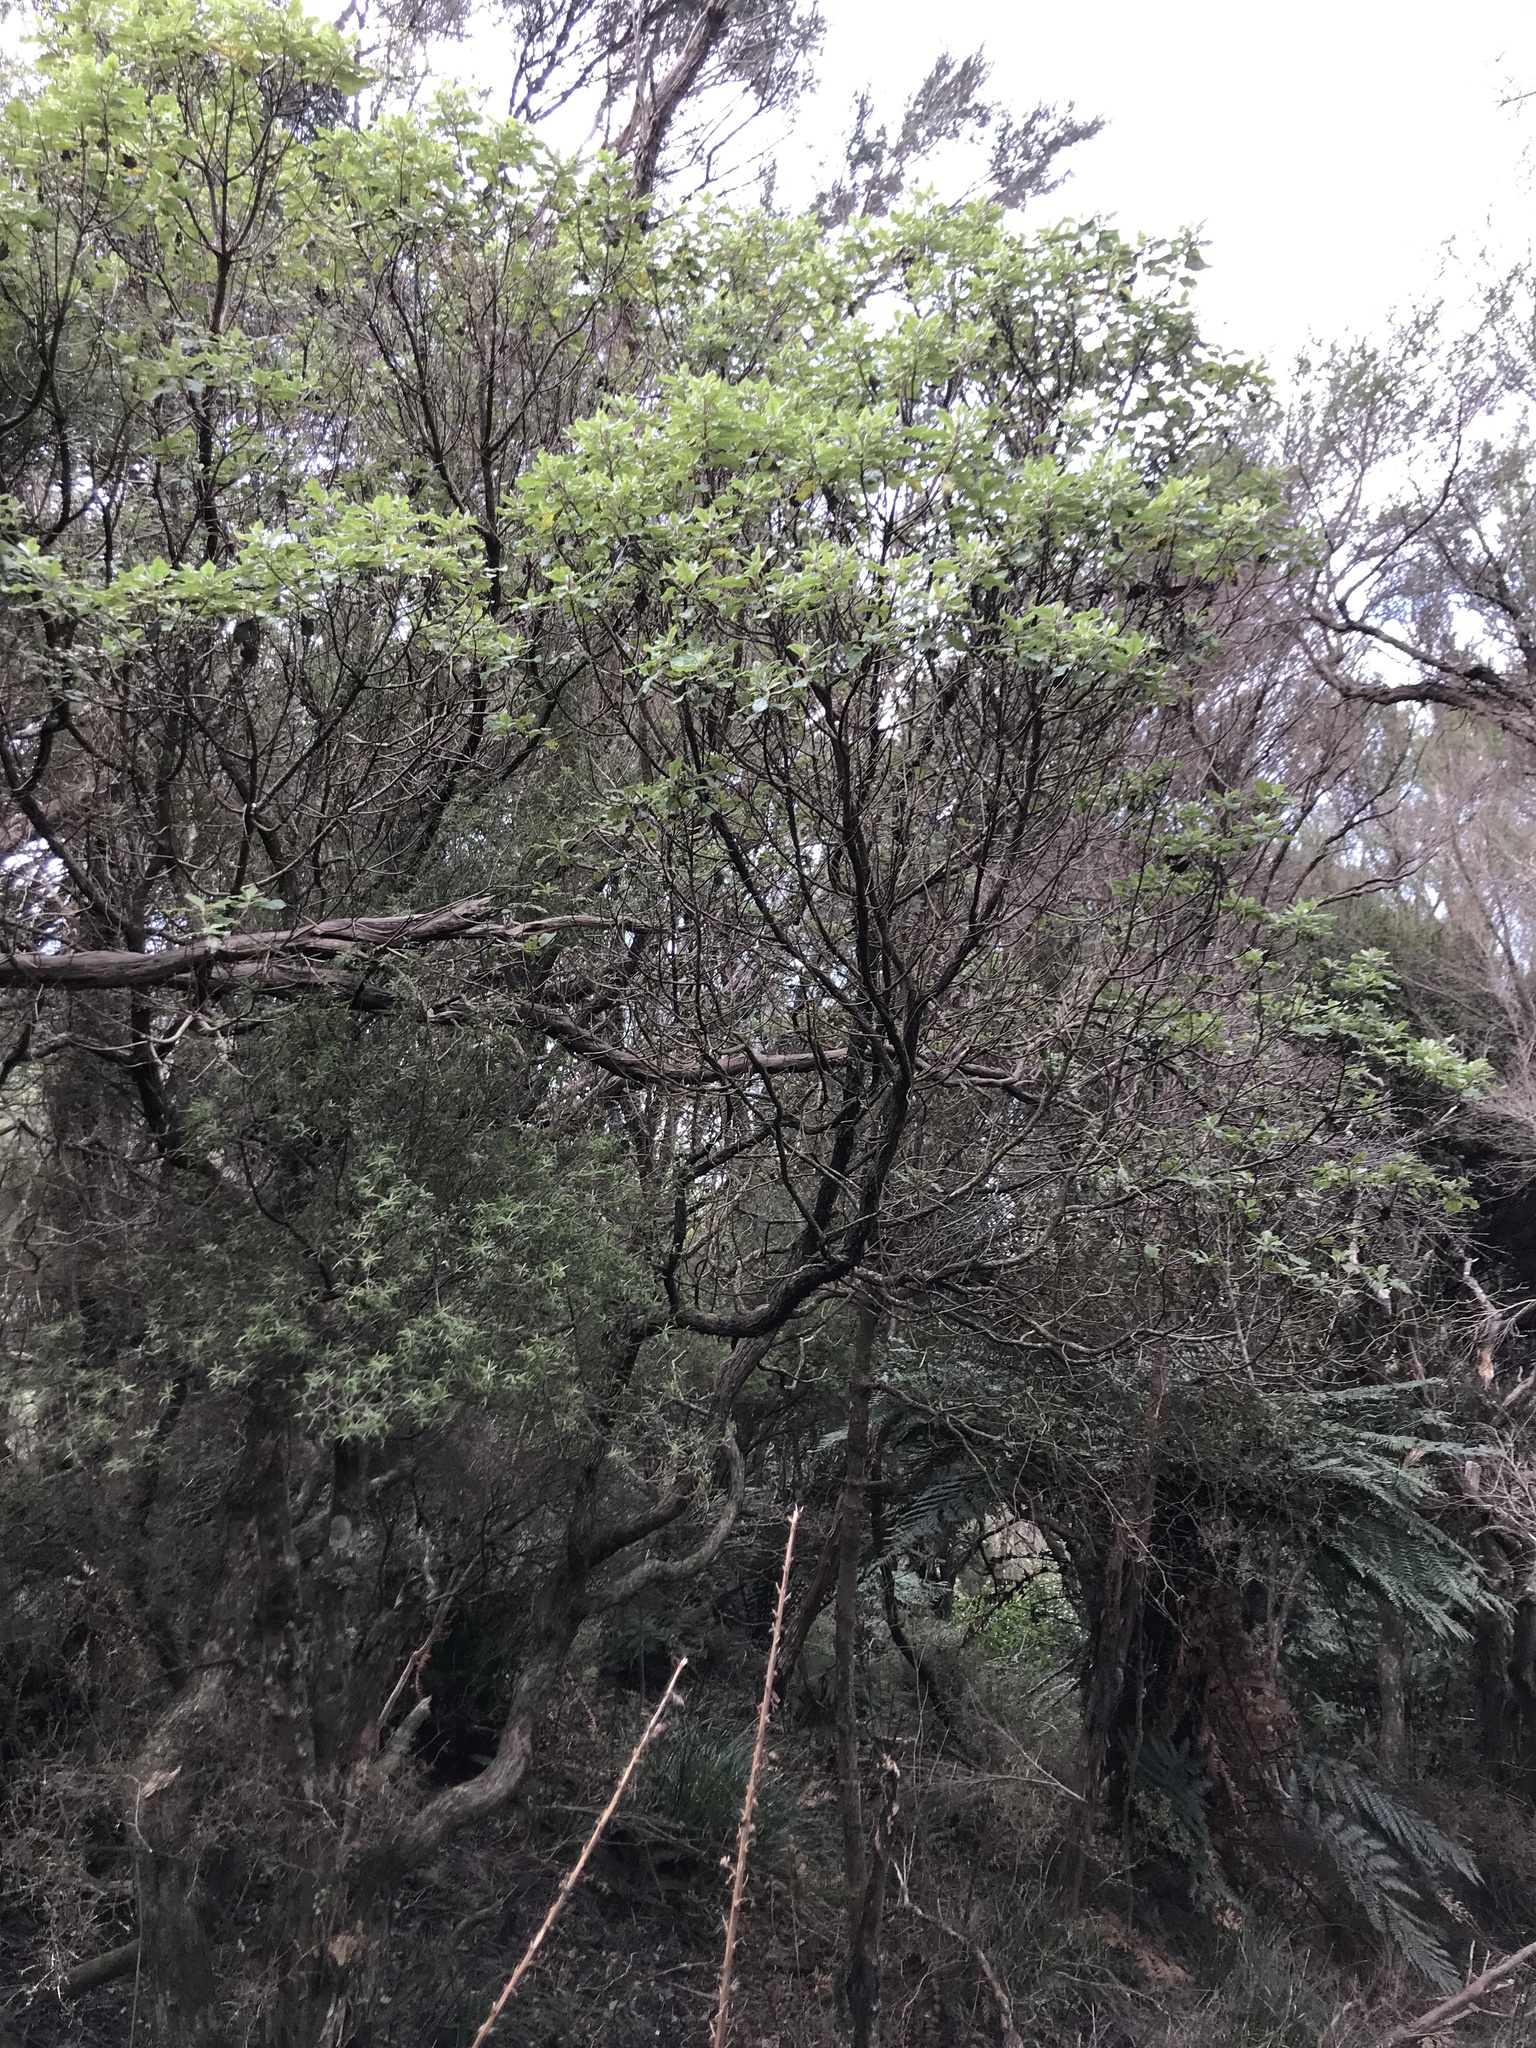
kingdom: Plantae
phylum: Tracheophyta
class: Magnoliopsida
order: Asterales
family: Asteraceae
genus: Brachyglottis
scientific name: Brachyglottis pentacopa
